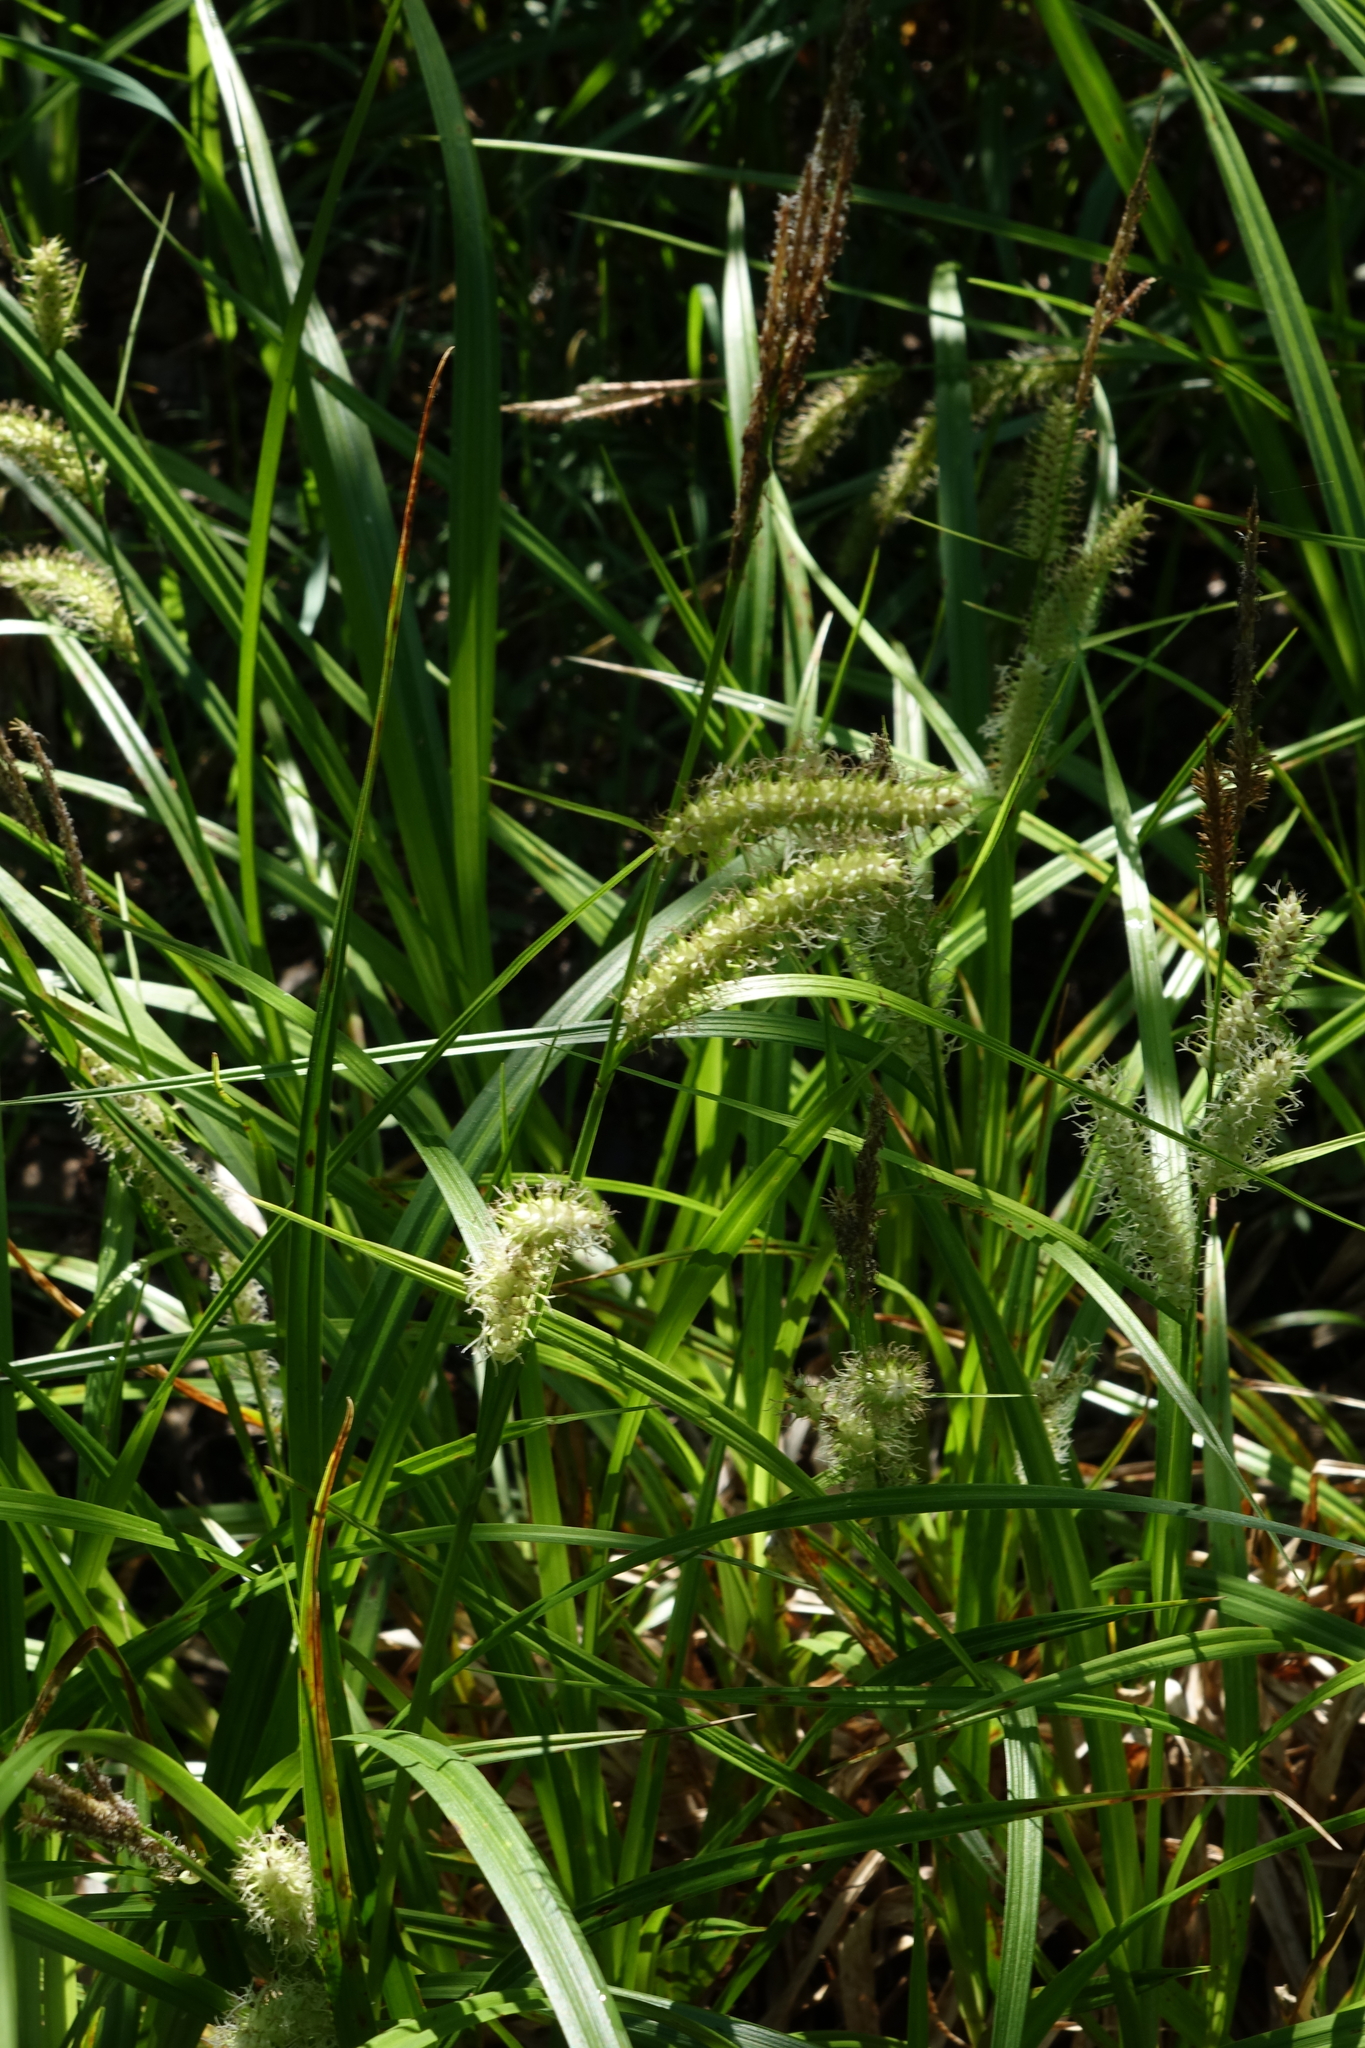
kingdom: Plantae
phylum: Tracheophyta
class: Liliopsida
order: Poales
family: Cyperaceae
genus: Carex
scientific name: Carex utriculata
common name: Beaked sedge
